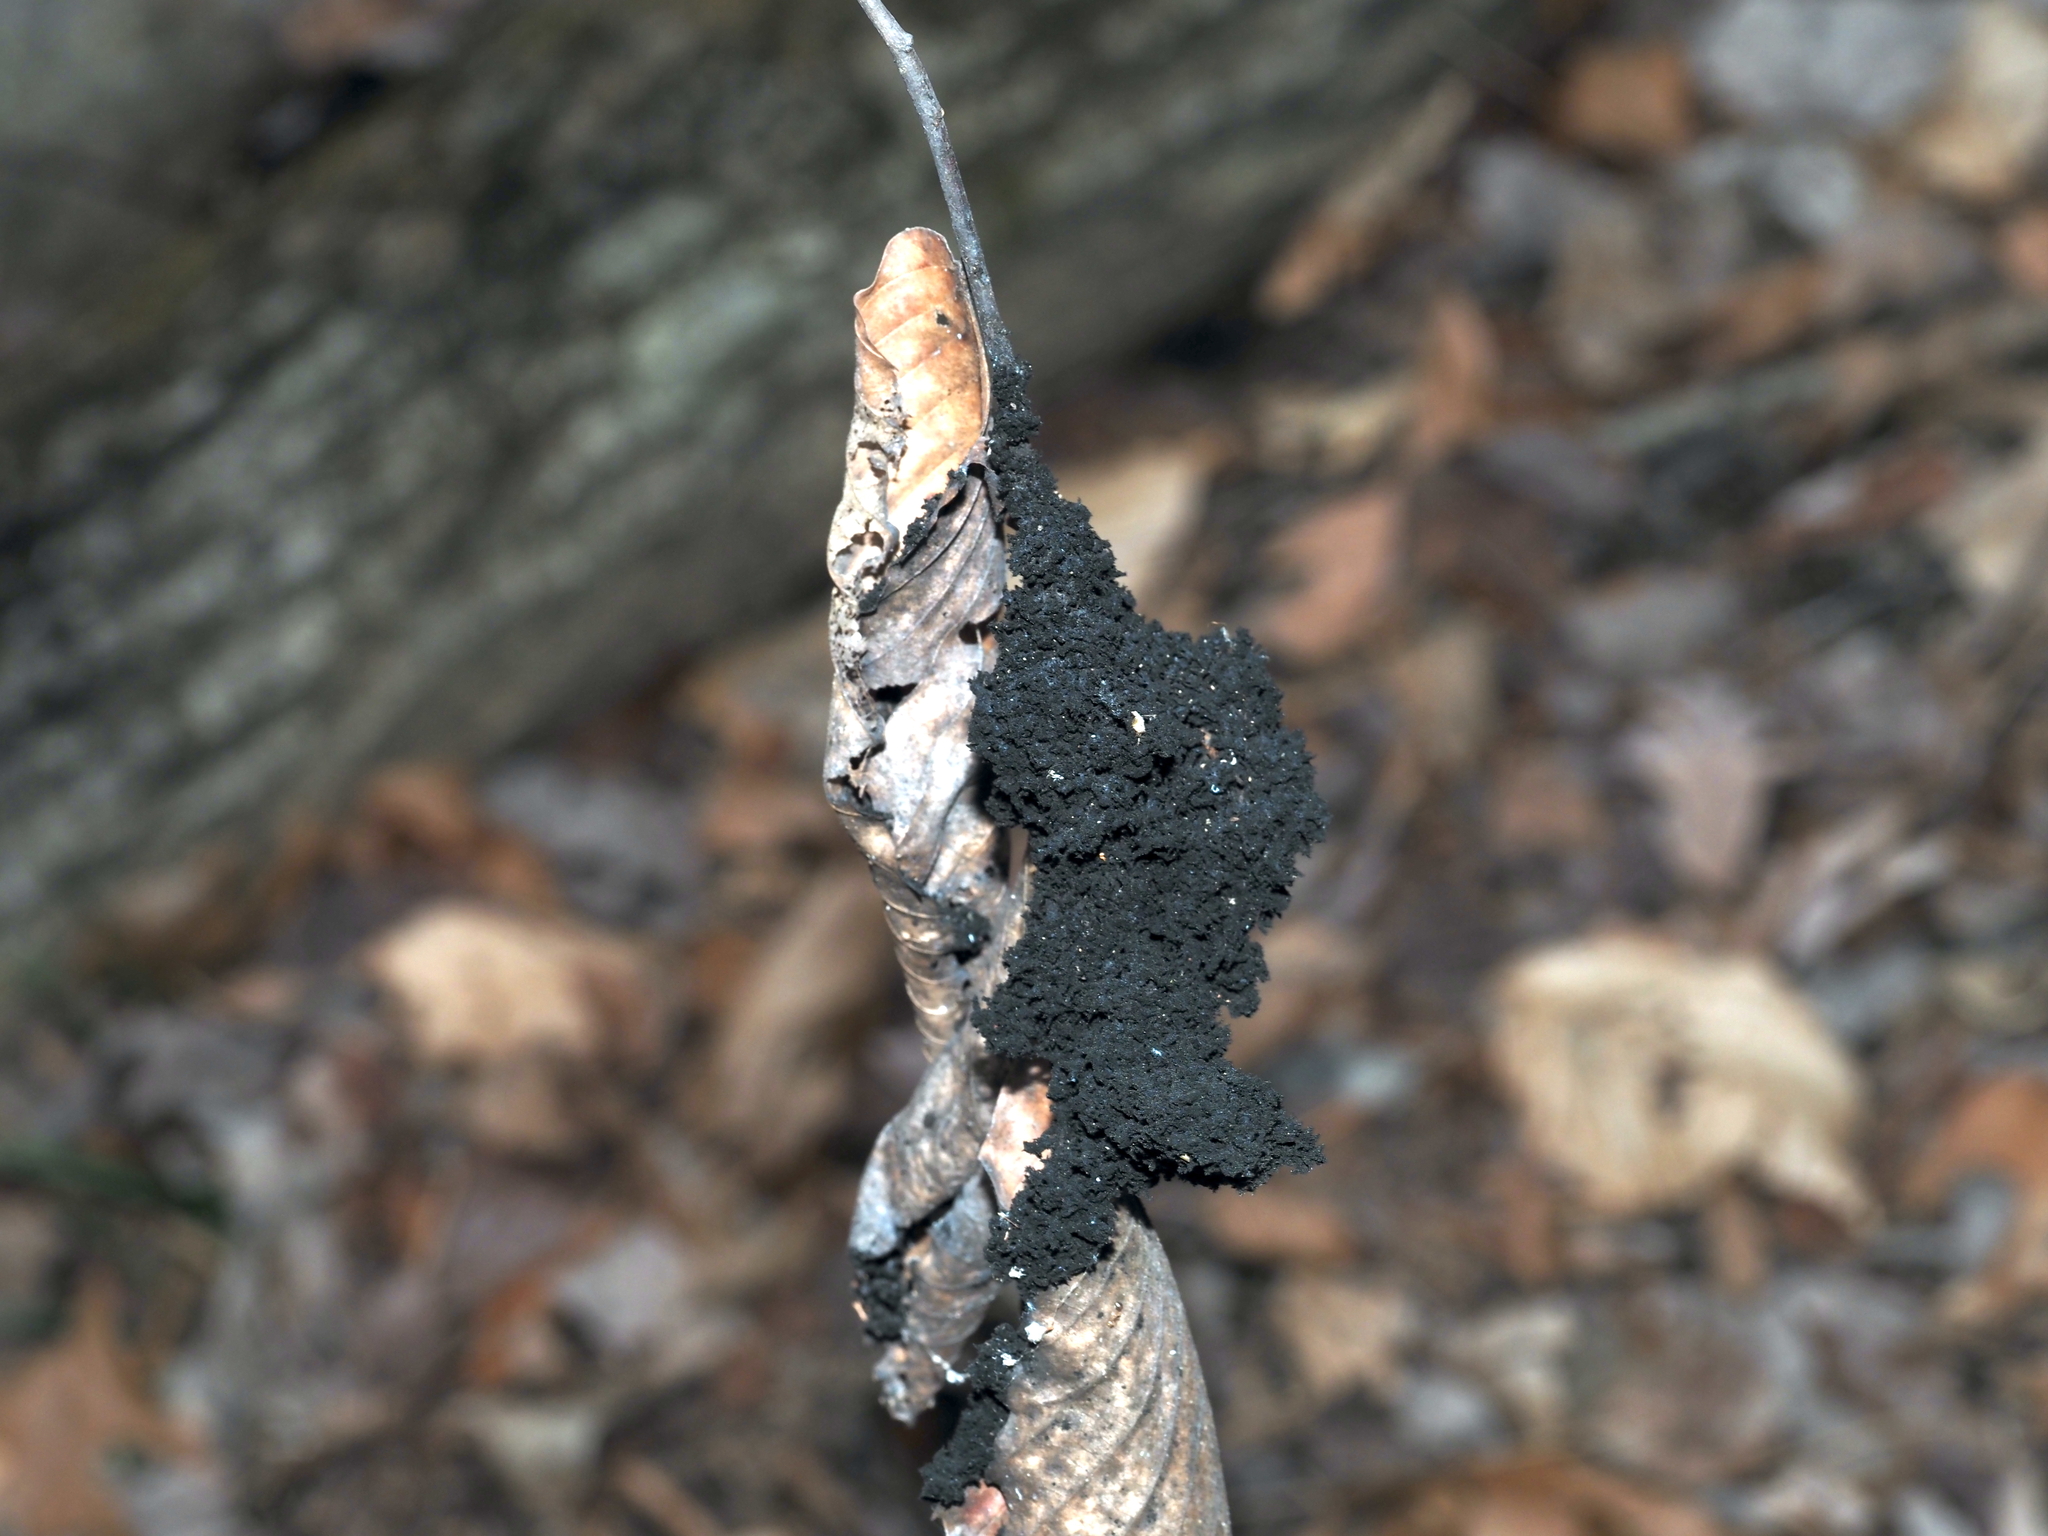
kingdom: Fungi
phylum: Ascomycota
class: Dothideomycetes
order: Capnodiales
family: Capnodiaceae
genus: Scorias
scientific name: Scorias spongiosa
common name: Black sooty mold
